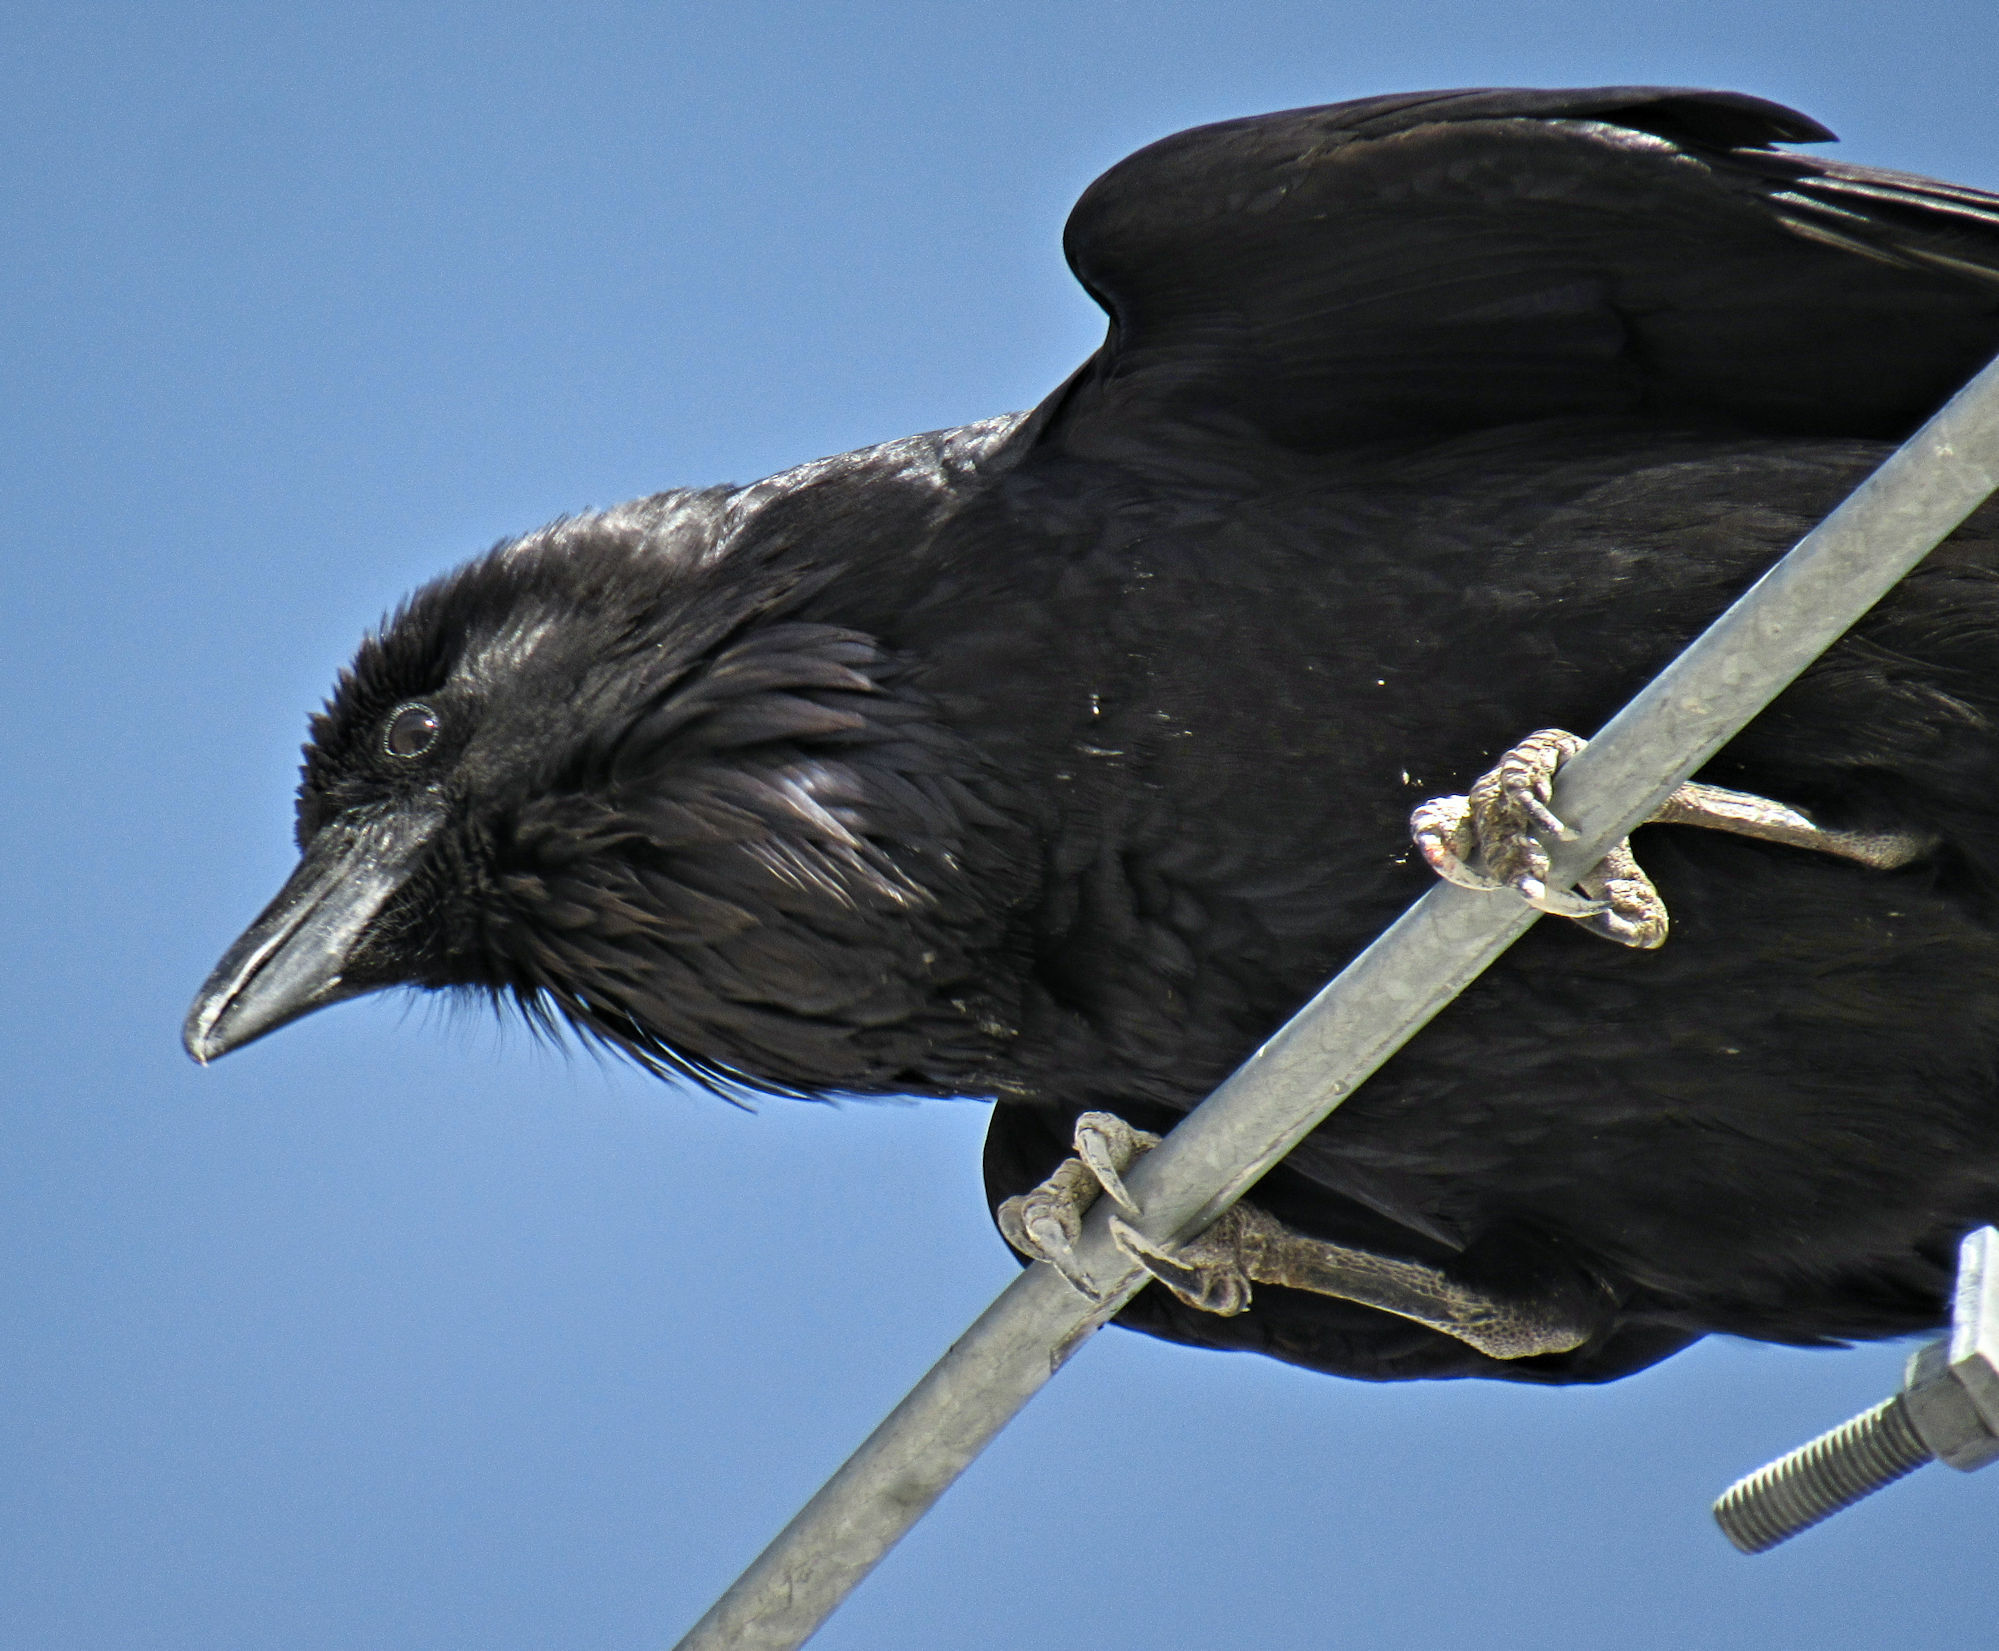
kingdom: Animalia
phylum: Chordata
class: Aves
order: Passeriformes
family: Corvidae
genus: Corvus
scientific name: Corvus corax
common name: Common raven
